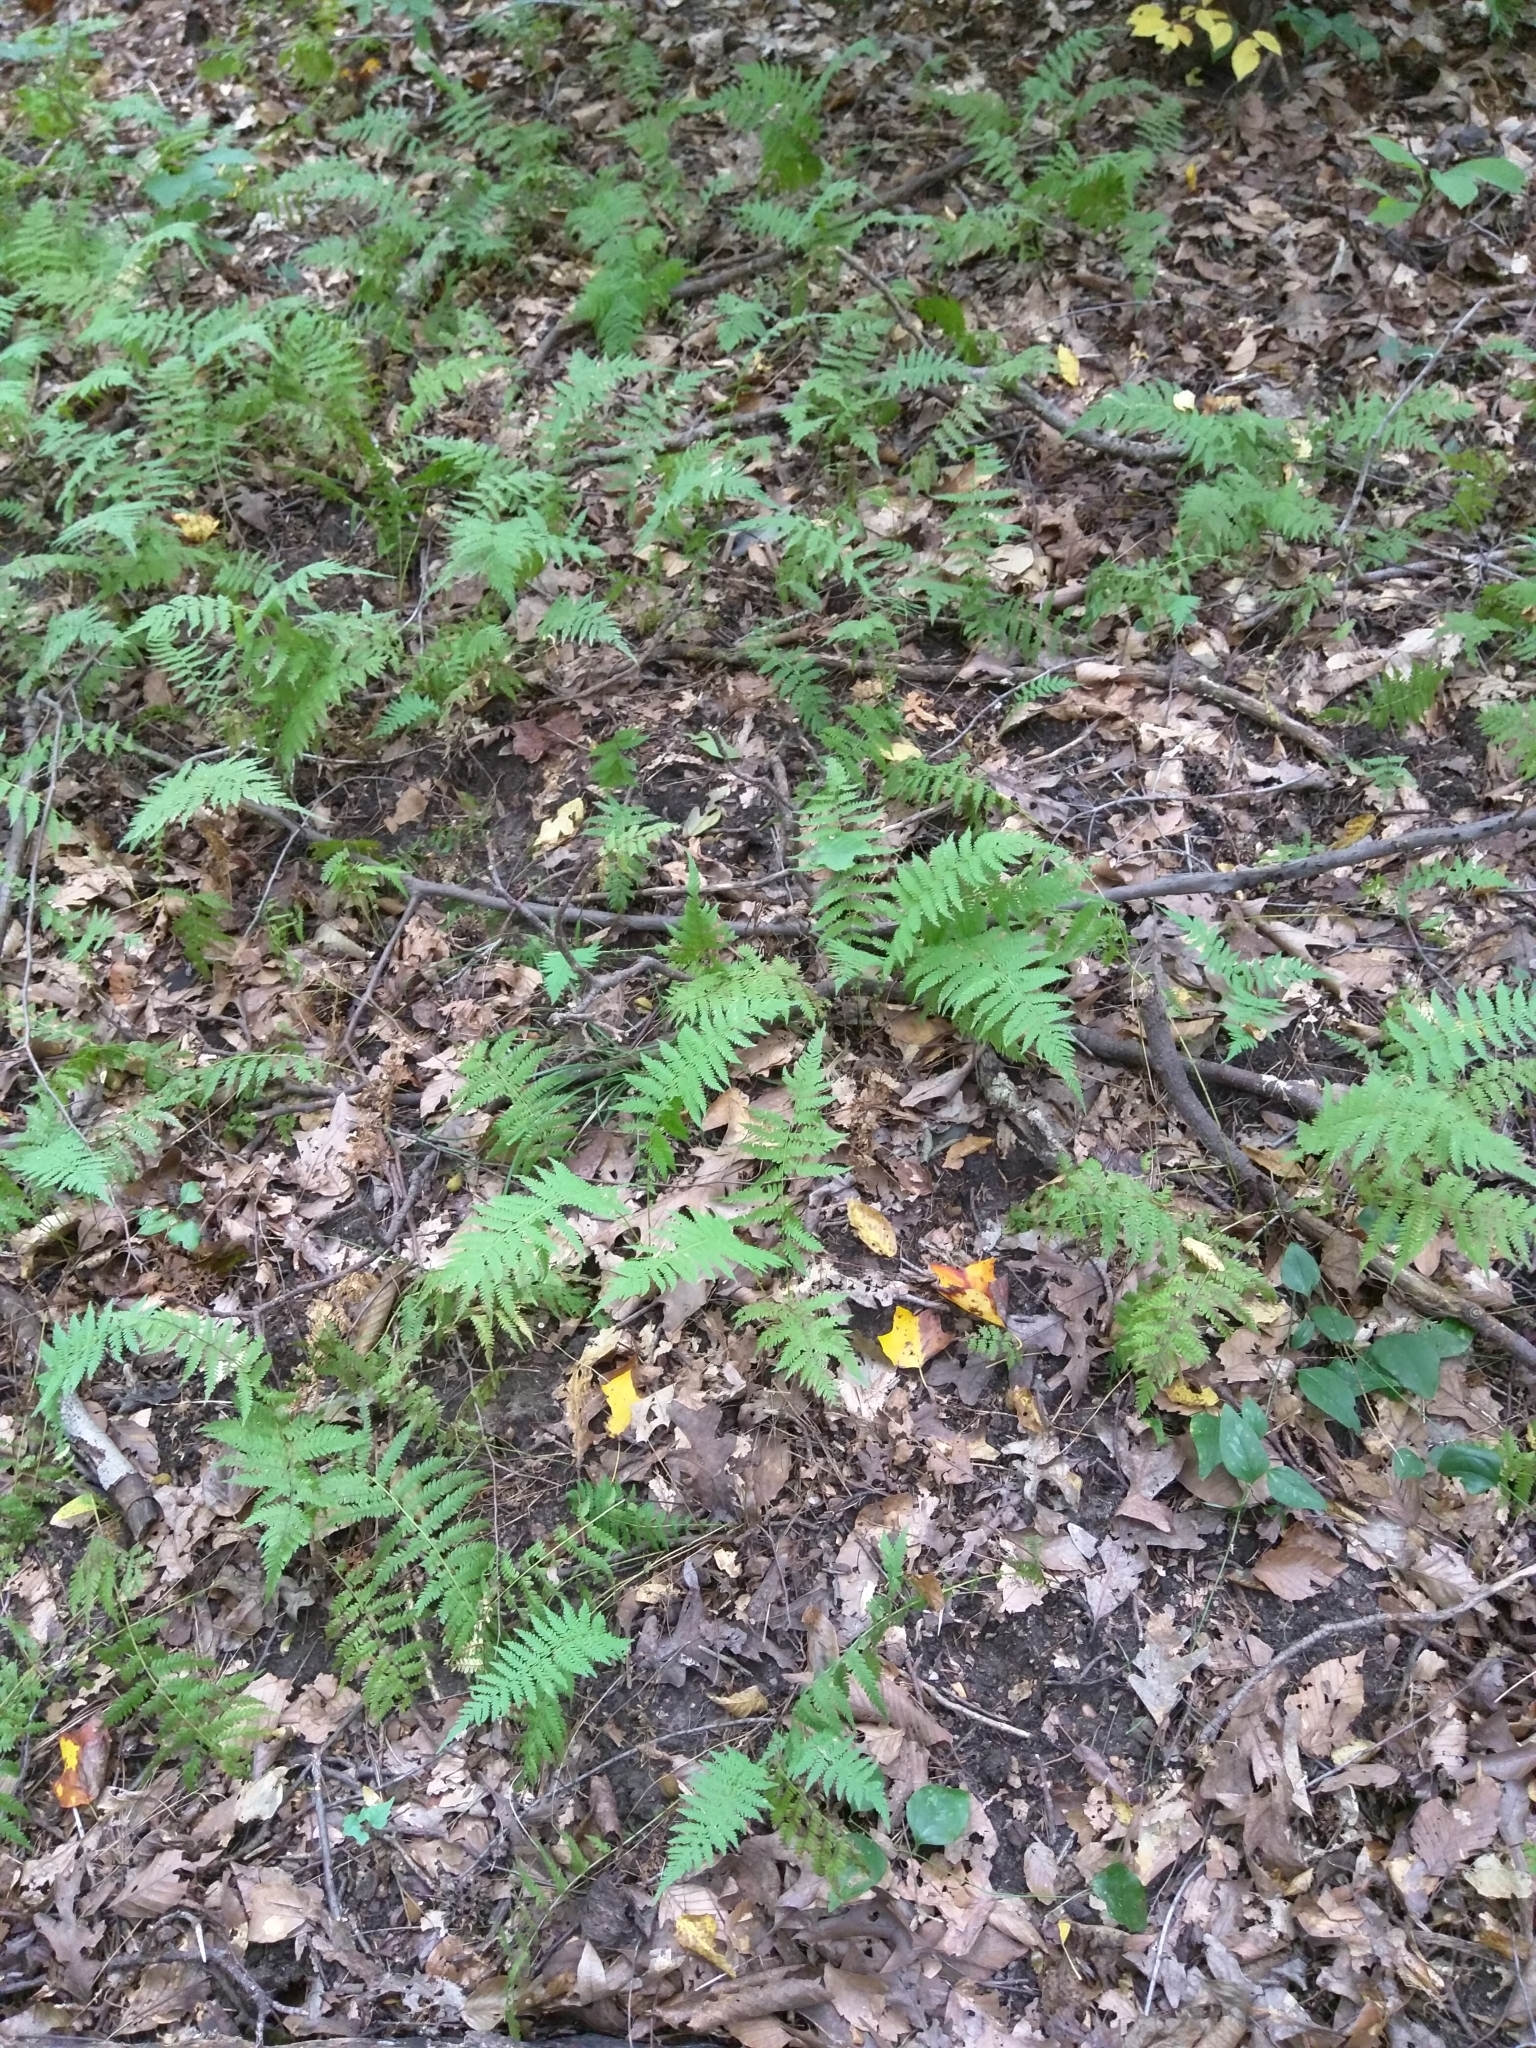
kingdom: Plantae
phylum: Tracheophyta
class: Polypodiopsida
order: Polypodiales
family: Thelypteridaceae
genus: Amauropelta
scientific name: Amauropelta noveboracensis
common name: New york fern
